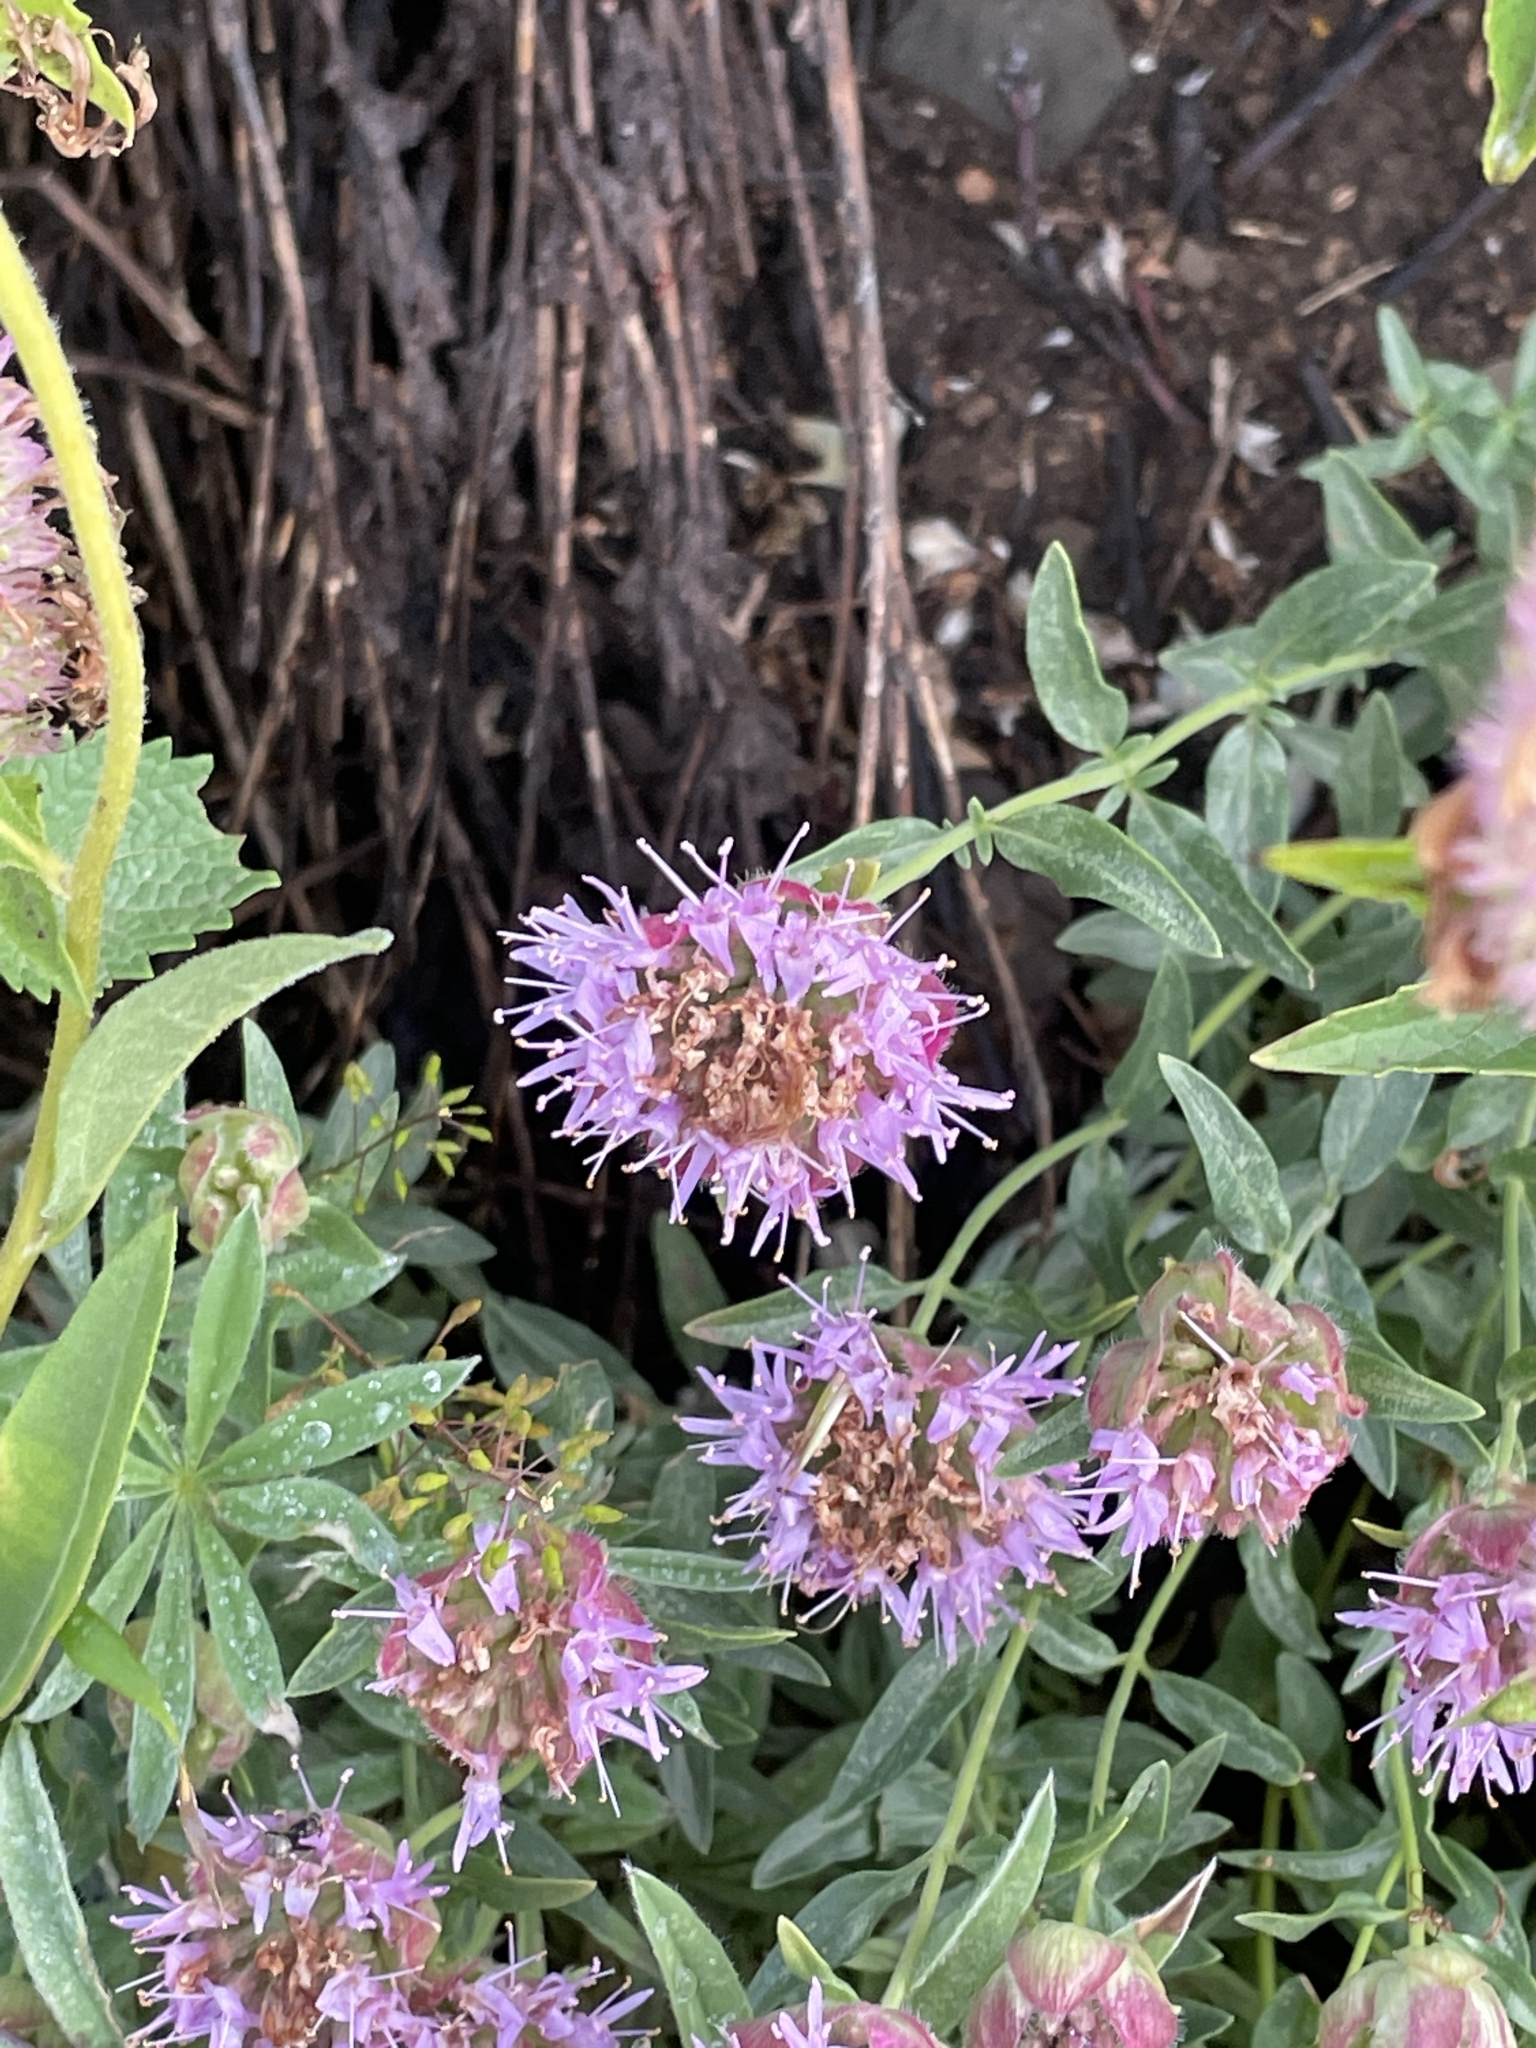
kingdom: Plantae
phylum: Tracheophyta
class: Magnoliopsida
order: Lamiales
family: Lamiaceae
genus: Monardella
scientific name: Monardella odoratissima
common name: Pacific monardella
